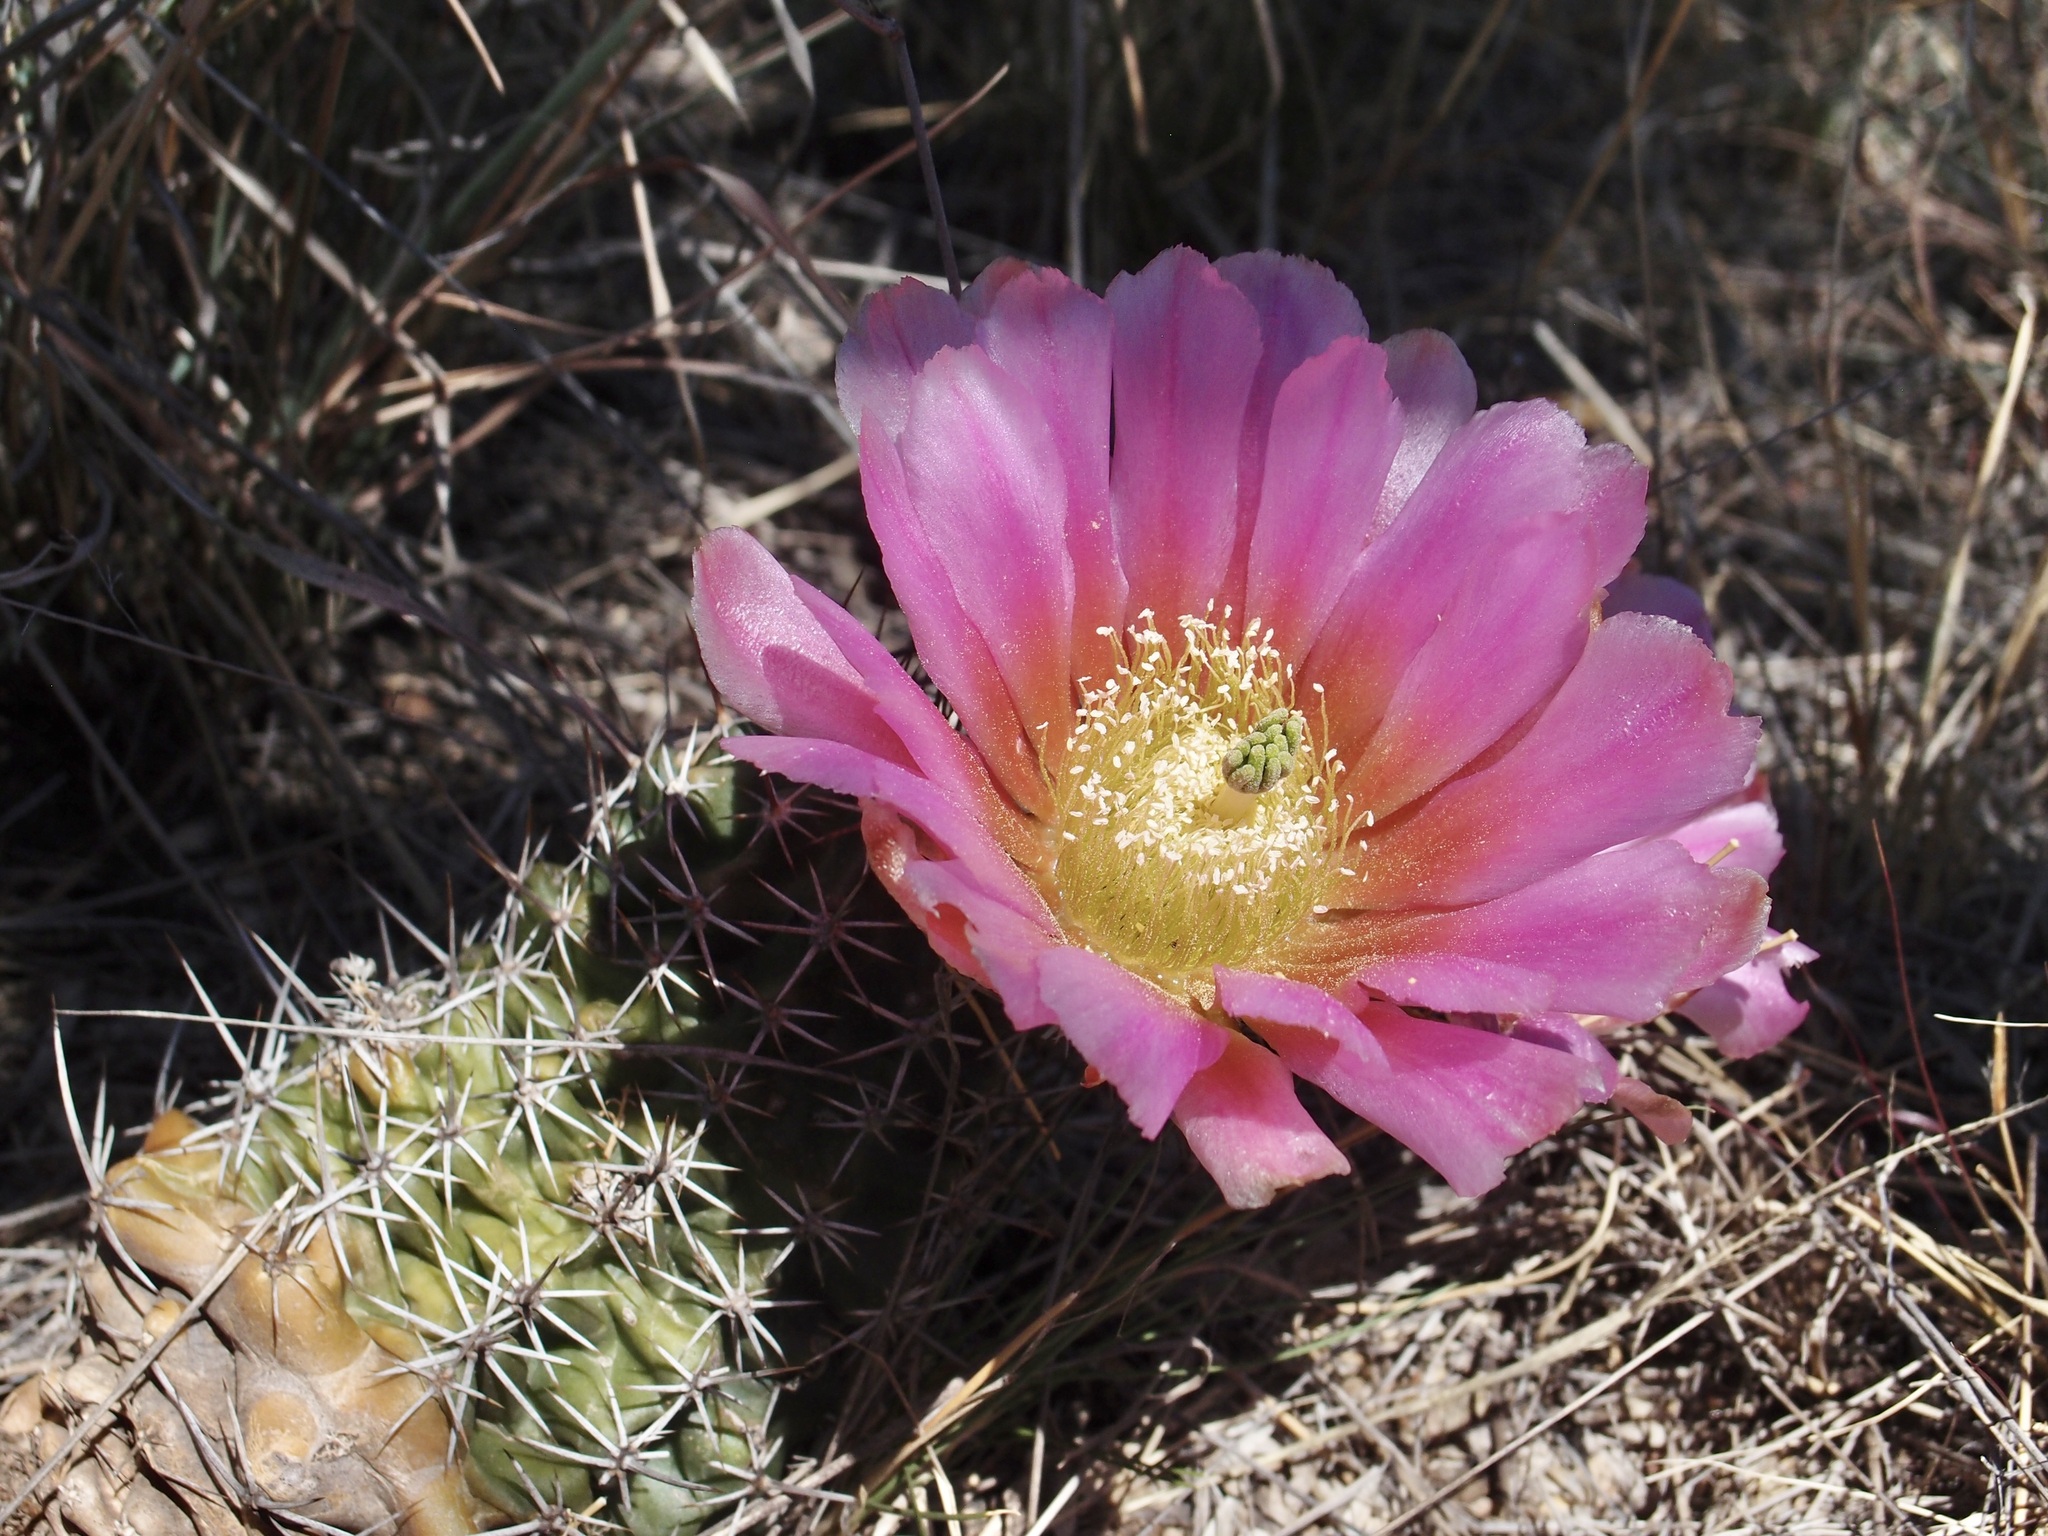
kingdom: Plantae
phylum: Tracheophyta
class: Magnoliopsida
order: Caryophyllales
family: Cactaceae
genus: Echinocereus
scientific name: Echinocereus fendleri
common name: Fendler's hedgehog cactus
